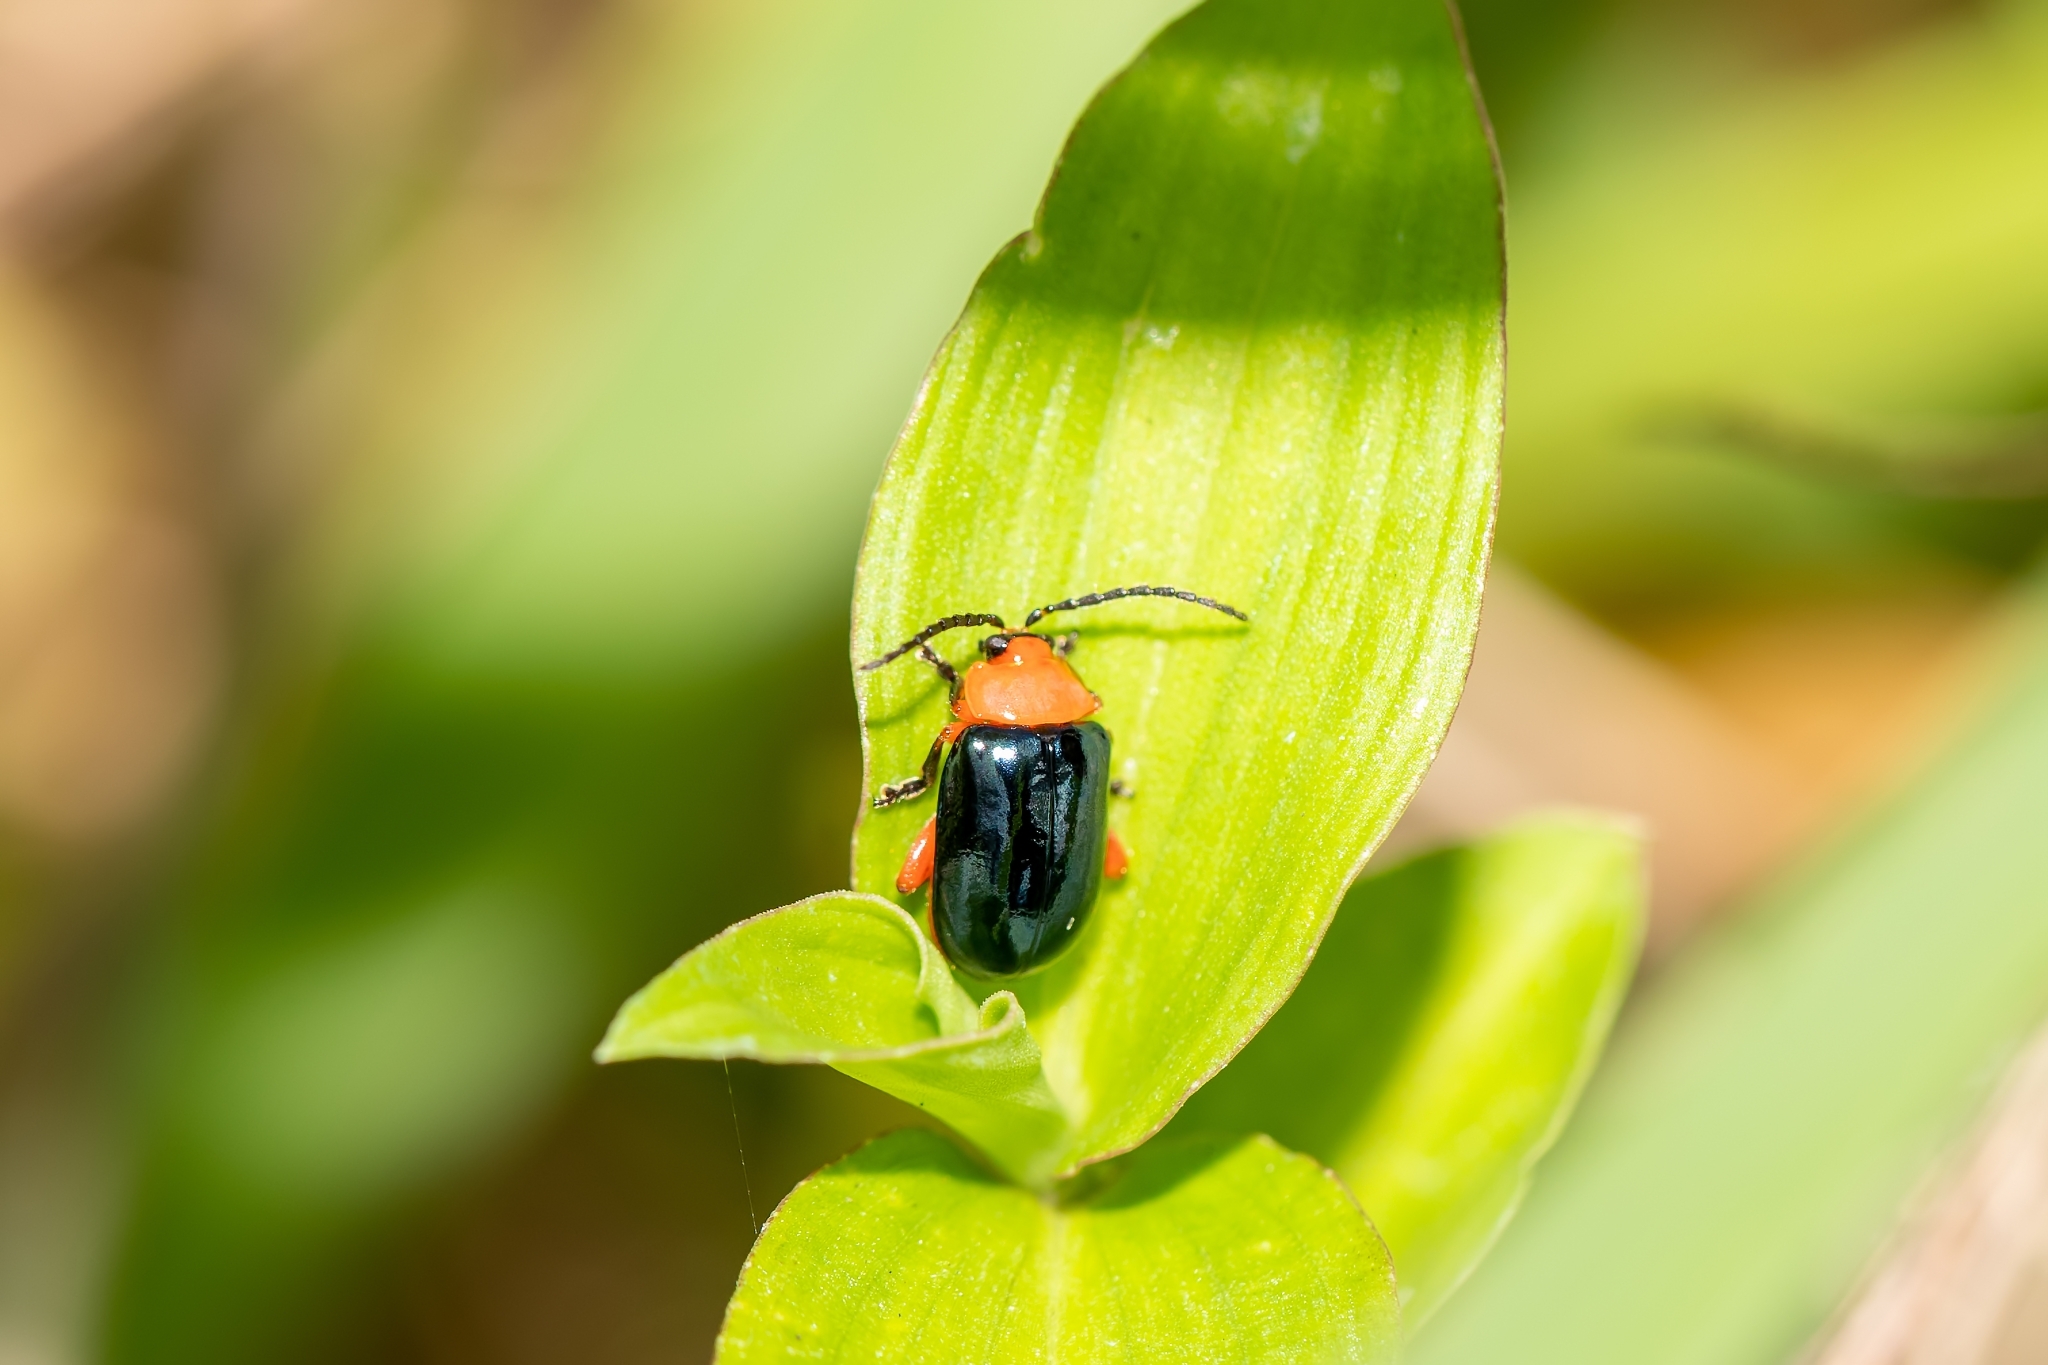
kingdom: Animalia
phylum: Arthropoda
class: Insecta
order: Coleoptera
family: Chrysomelidae
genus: Asphaera
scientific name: Asphaera lustrans
